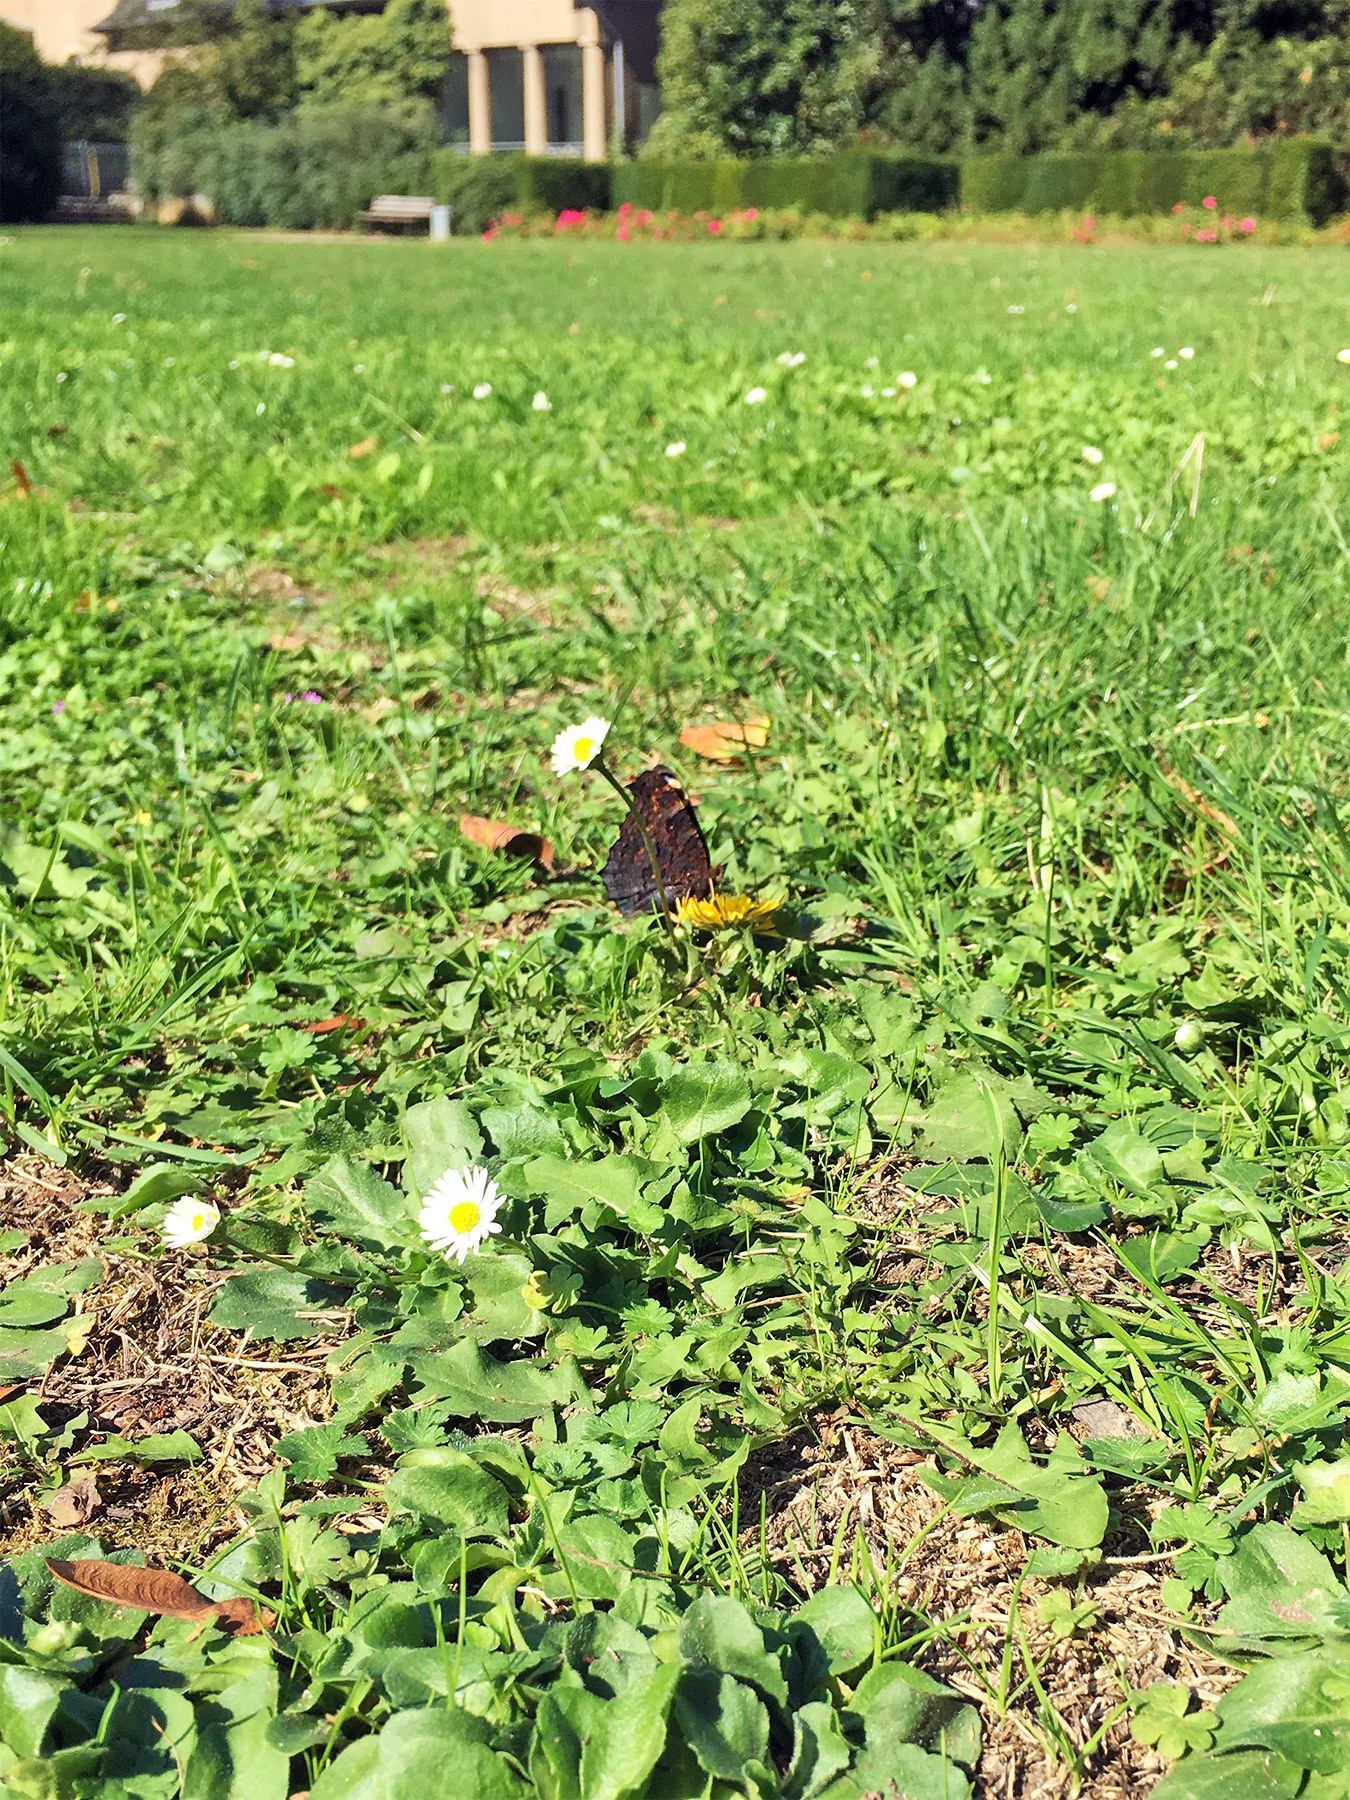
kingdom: Animalia
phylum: Arthropoda
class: Insecta
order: Lepidoptera
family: Nymphalidae
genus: Aglais
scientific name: Aglais io
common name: Peacock
